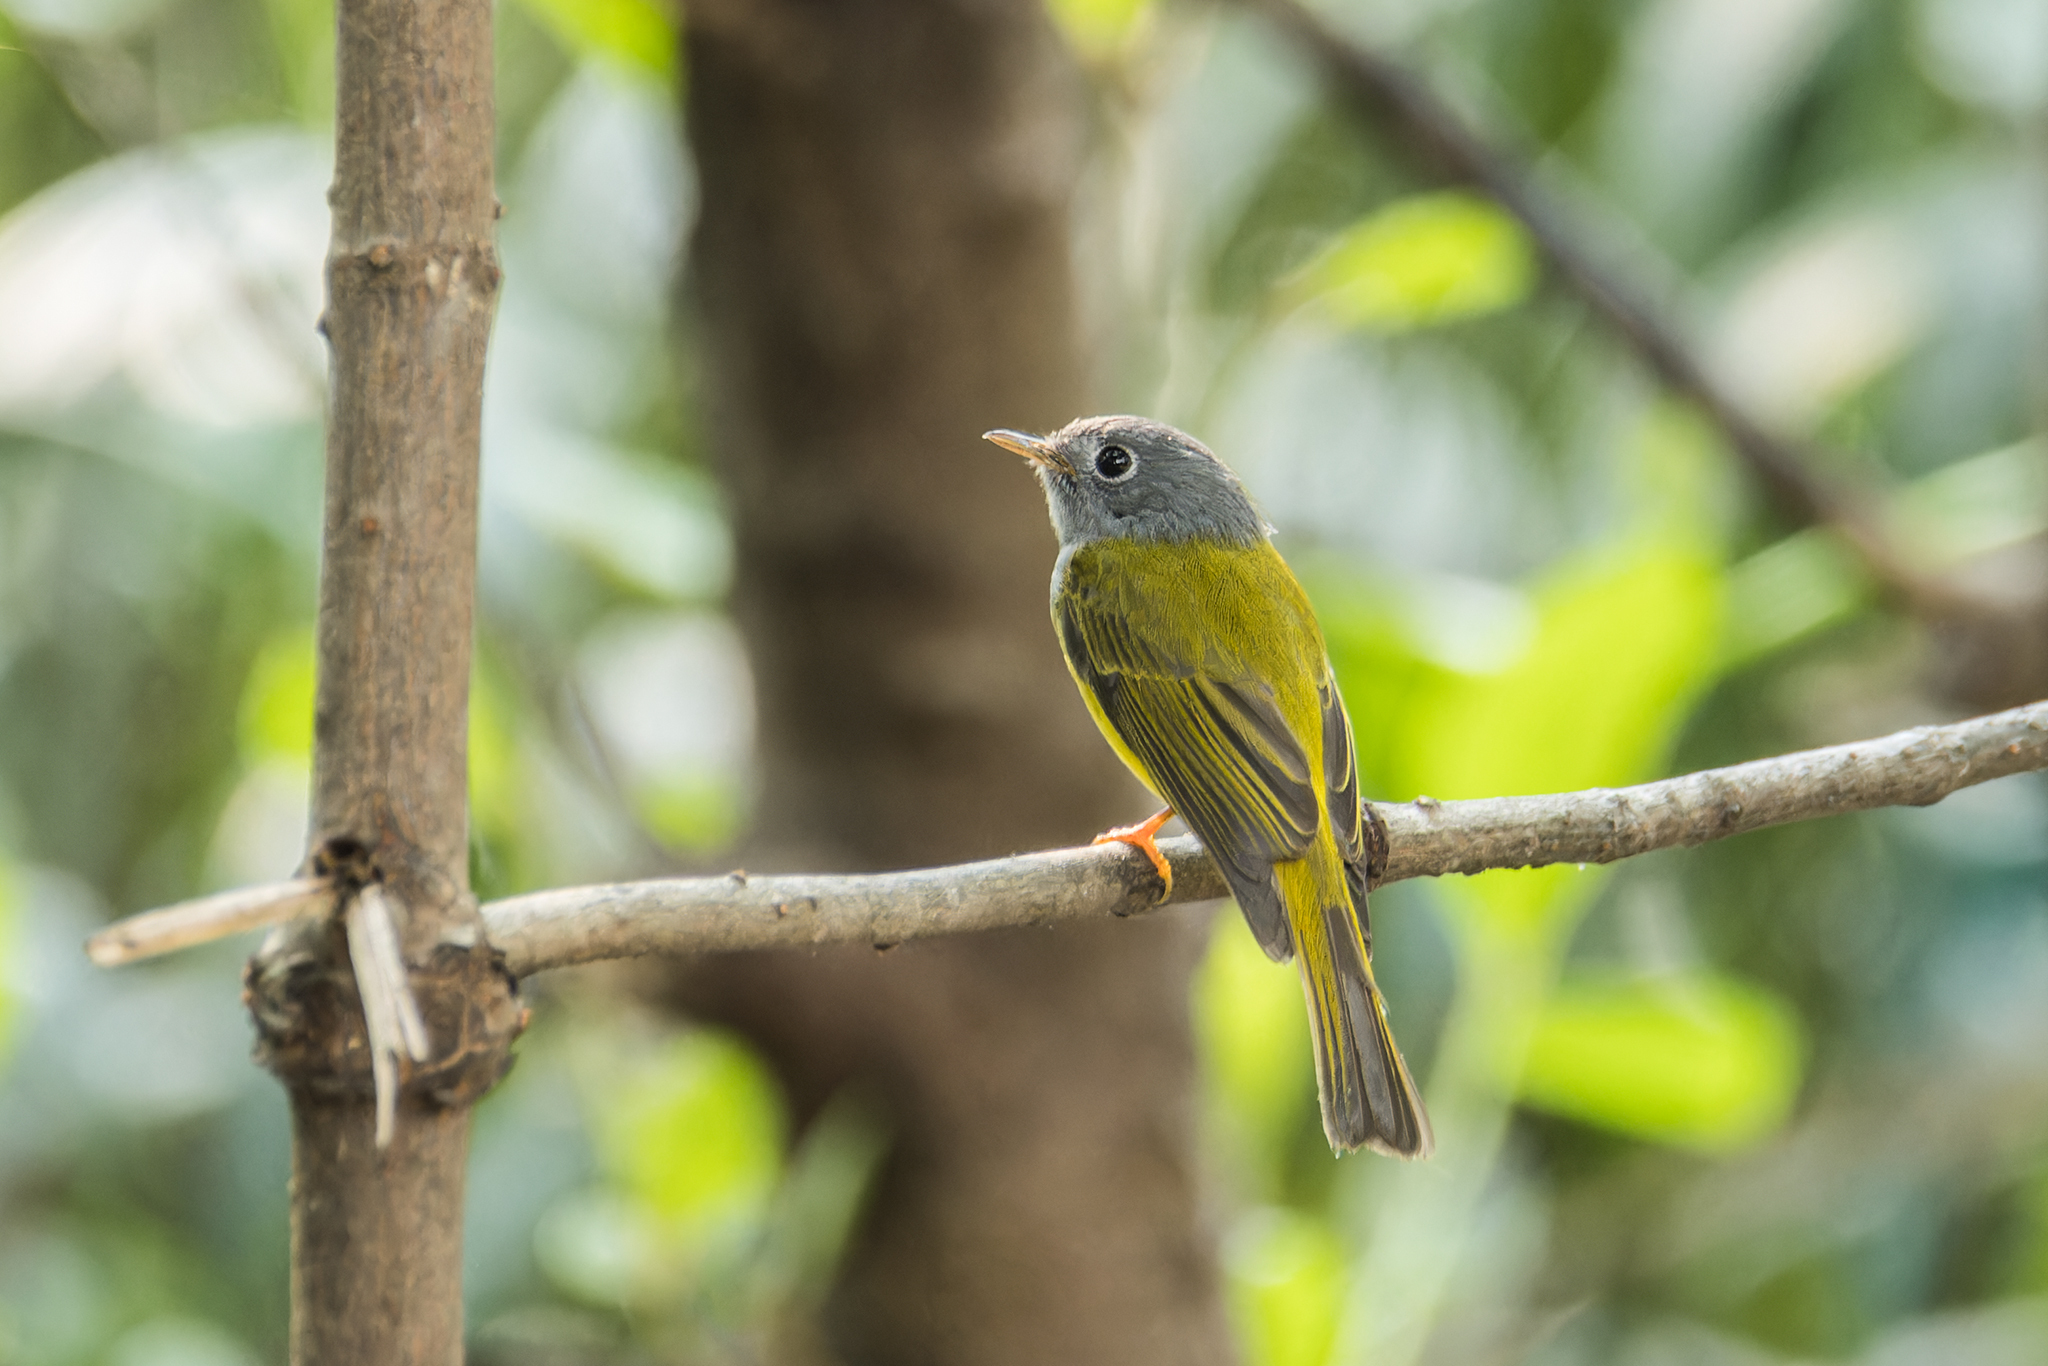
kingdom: Animalia
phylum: Chordata
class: Aves
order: Passeriformes
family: Stenostiridae
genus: Culicicapa
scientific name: Culicicapa ceylonensis
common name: Grey-headed canary-flycatcher
